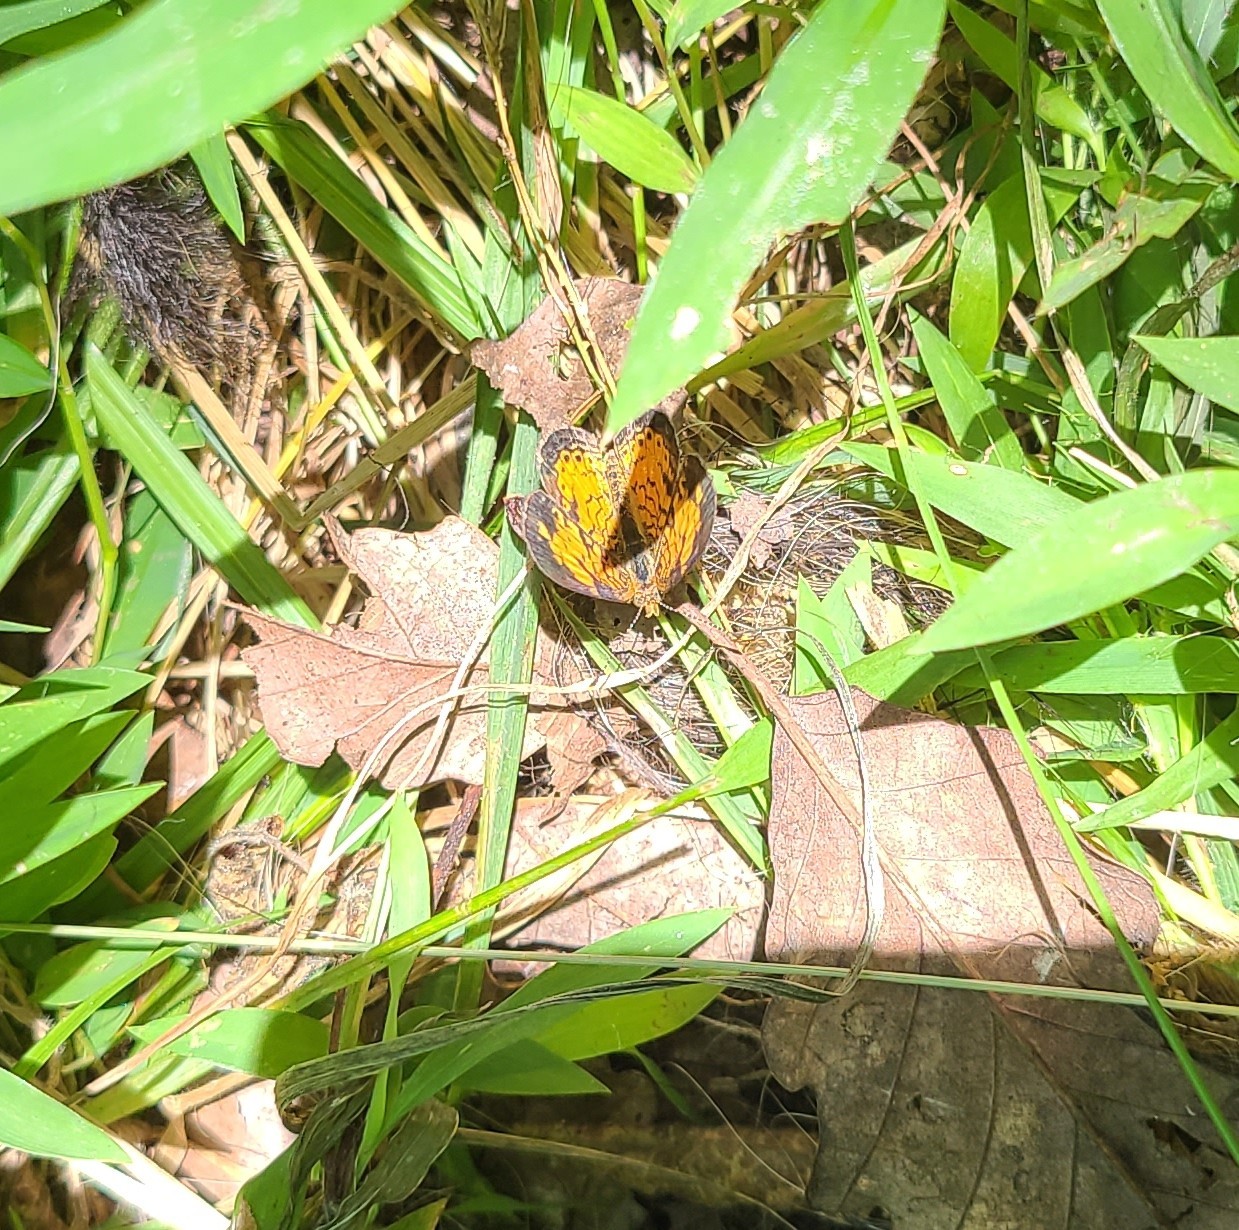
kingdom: Animalia
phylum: Arthropoda
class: Insecta
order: Lepidoptera
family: Nymphalidae
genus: Phyciodes
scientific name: Phyciodes tharos
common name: Pearl crescent
